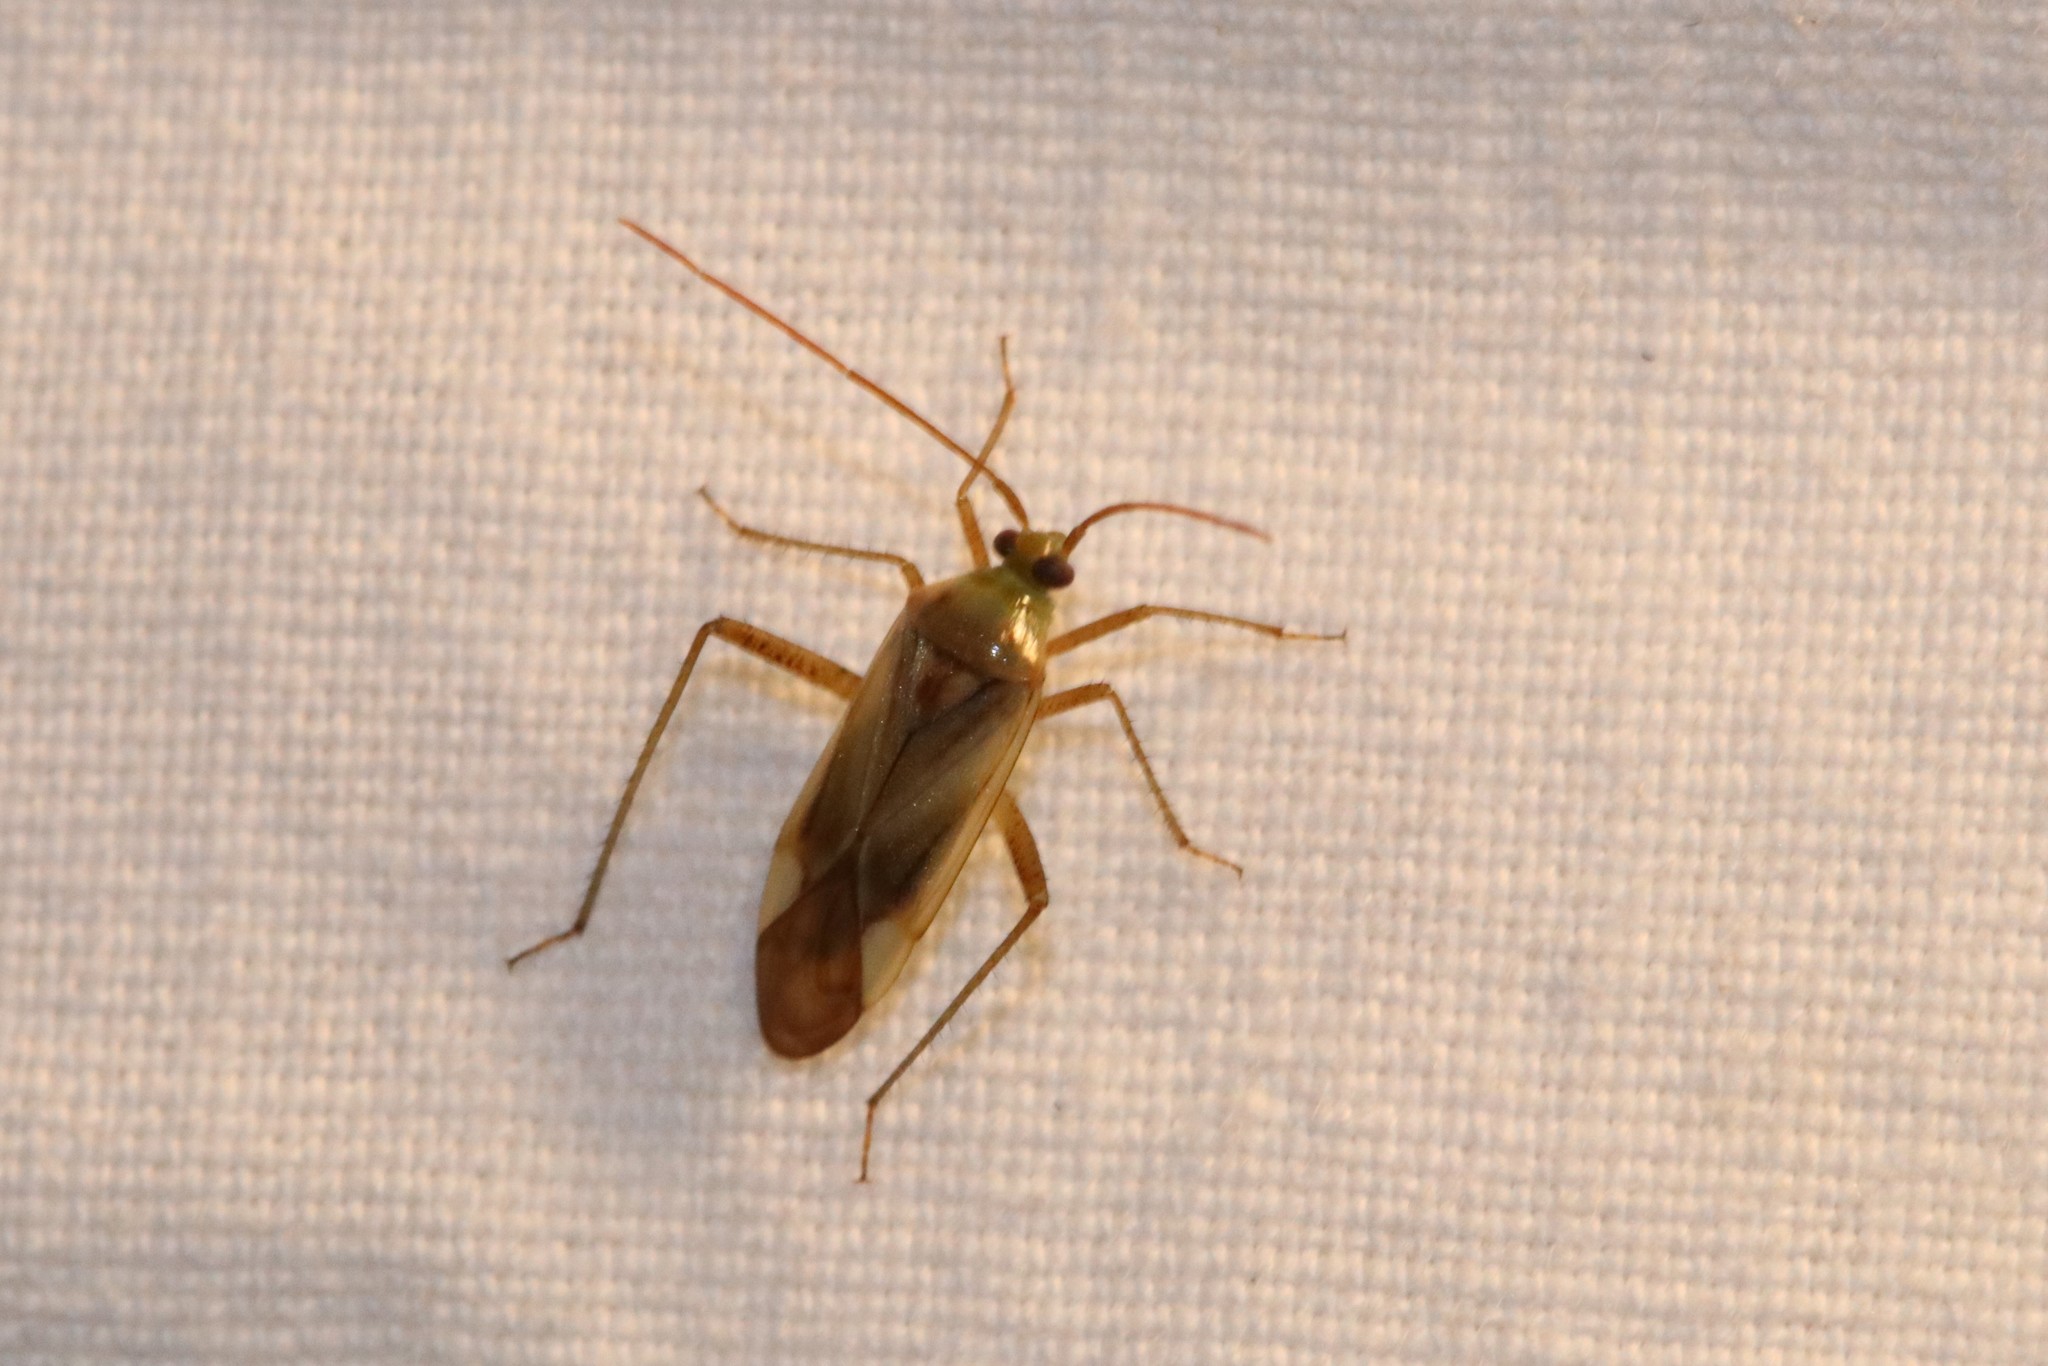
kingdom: Animalia
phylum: Arthropoda
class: Insecta
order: Hemiptera
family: Miridae
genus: Adelphocoris
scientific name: Adelphocoris lineolatus
